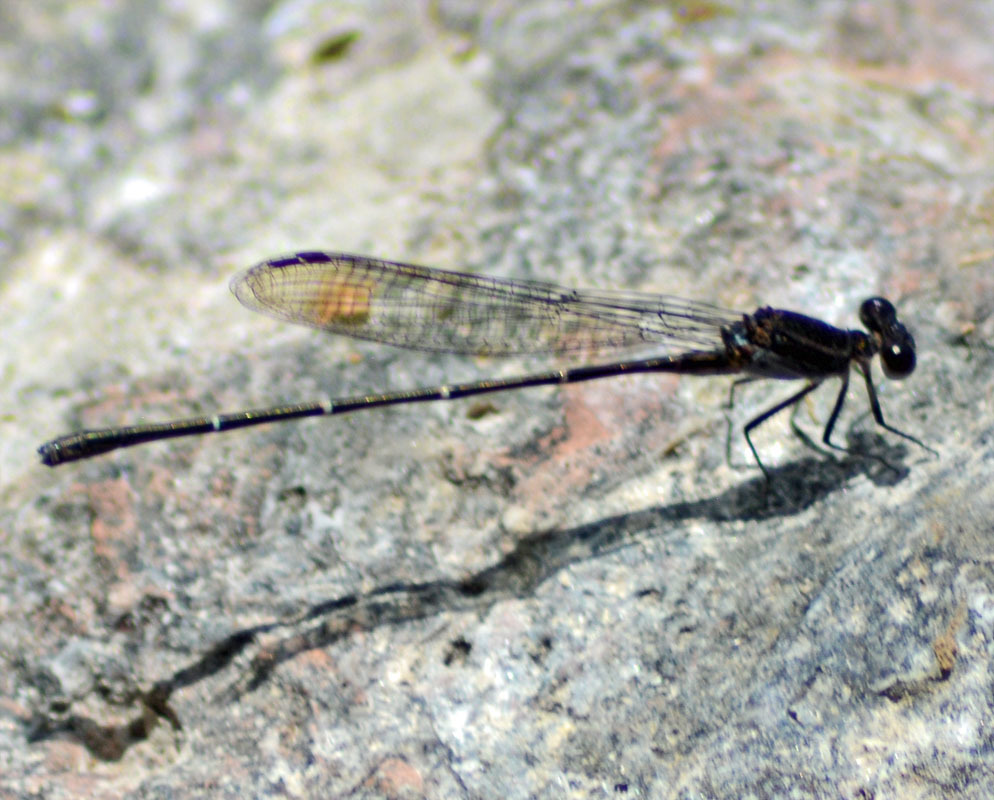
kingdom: Animalia
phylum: Arthropoda
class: Insecta
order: Odonata
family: Coenagrionidae
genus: Argia
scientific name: Argia tezpi
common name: Tezpi dancer
